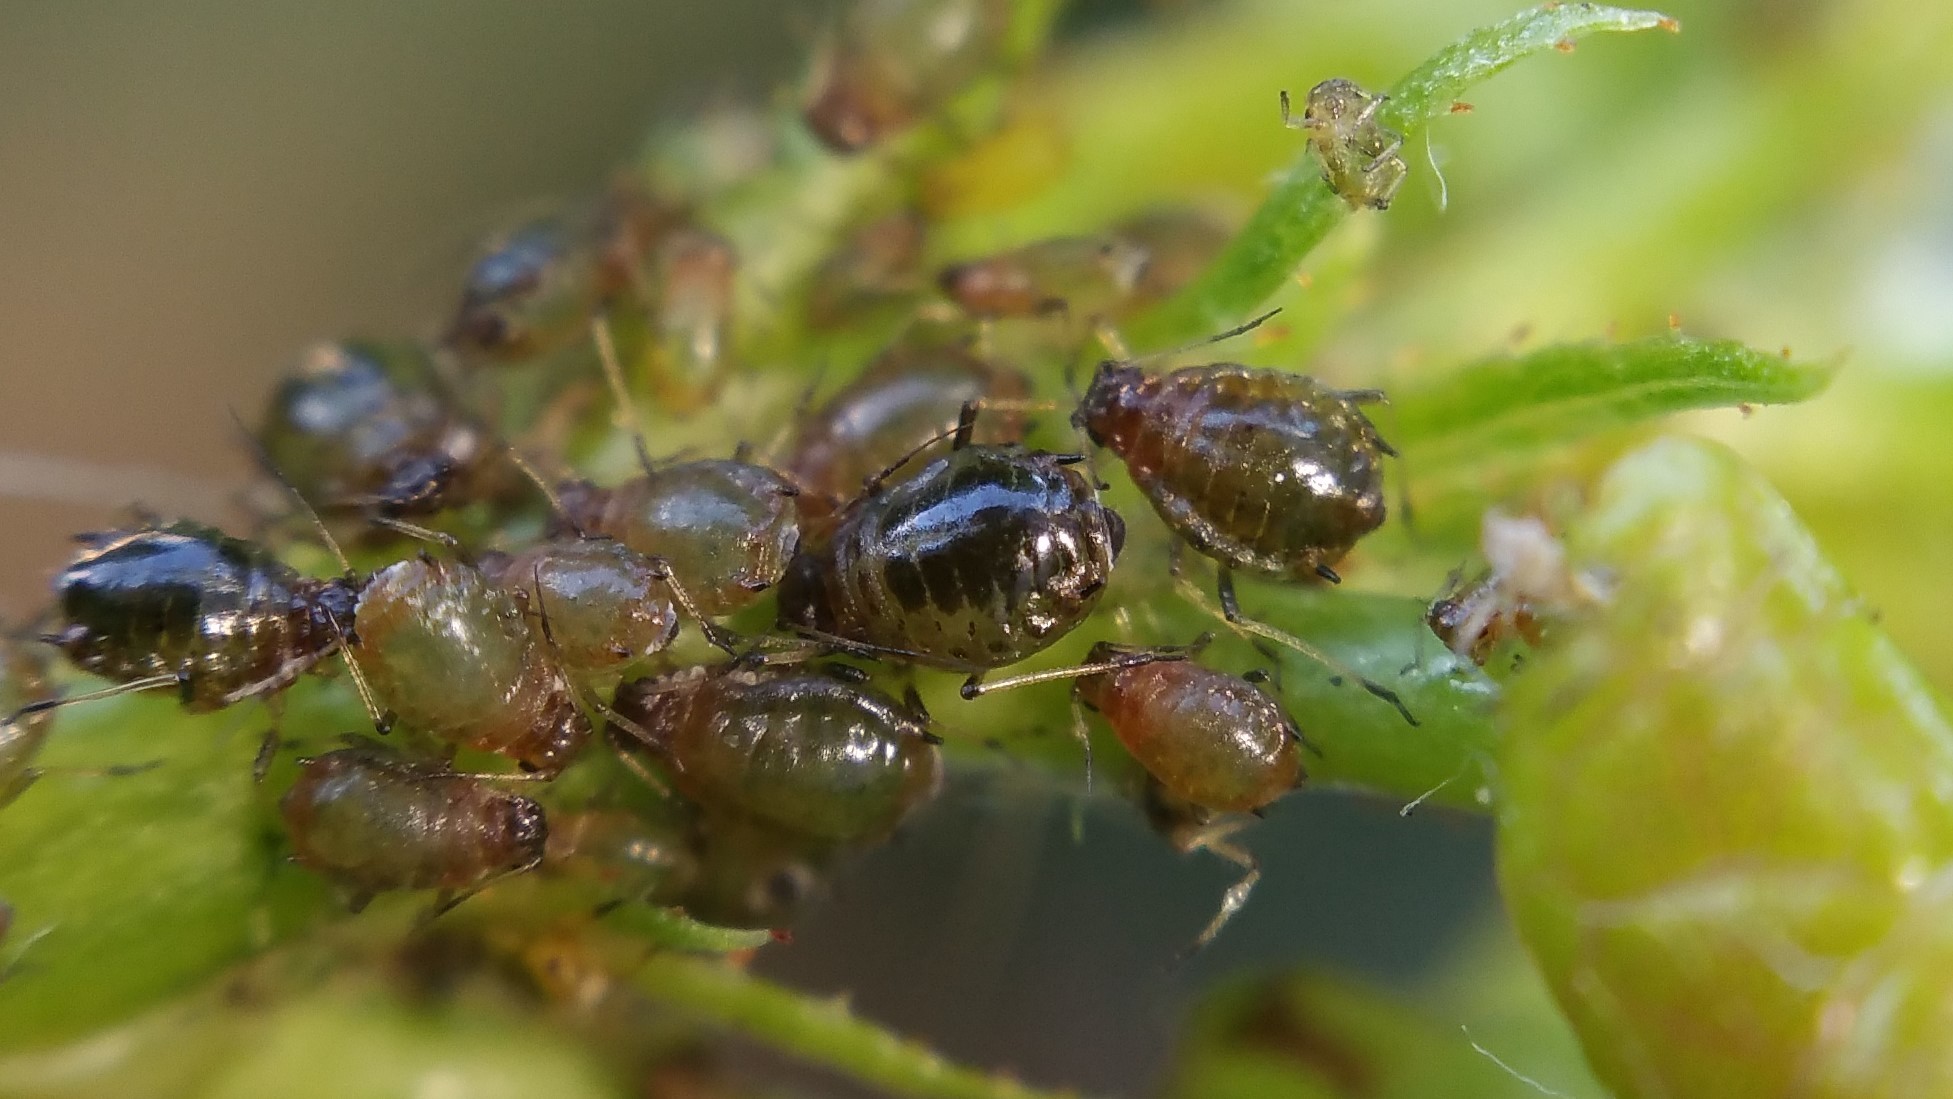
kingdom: Animalia
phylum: Arthropoda
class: Insecta
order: Hemiptera
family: Aphididae
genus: Brachycaudus
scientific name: Brachycaudus prunicola
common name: Aphid
